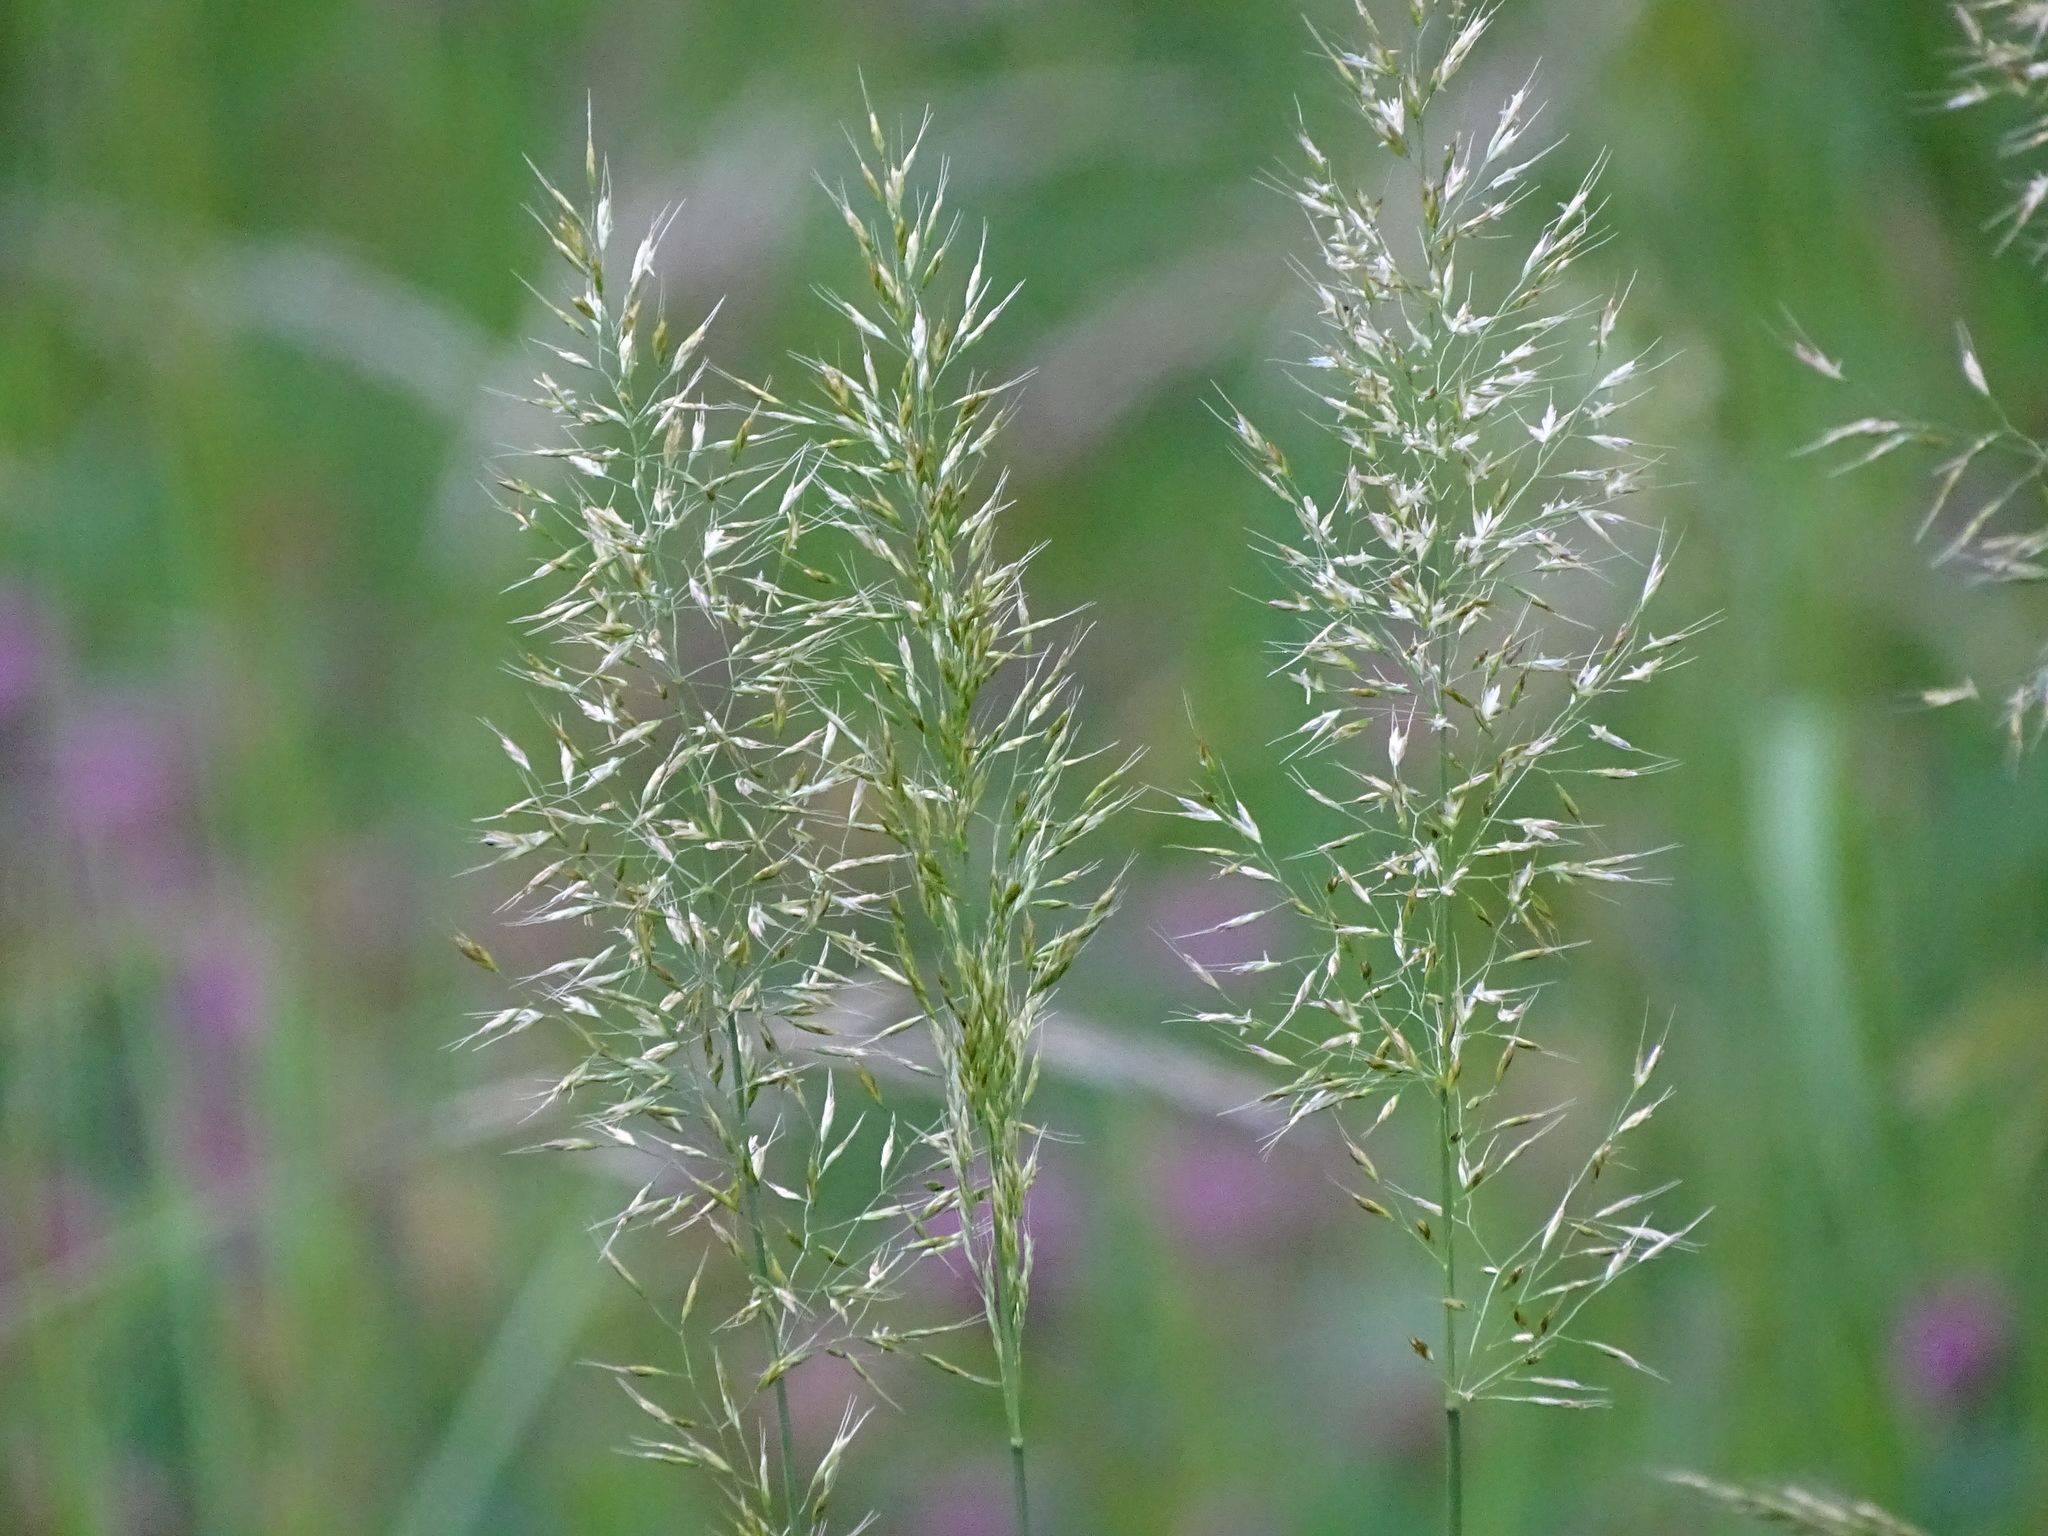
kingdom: Plantae
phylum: Tracheophyta
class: Liliopsida
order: Poales
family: Poaceae
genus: Trisetum
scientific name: Trisetum flavescens
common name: Yellow oat-grass
